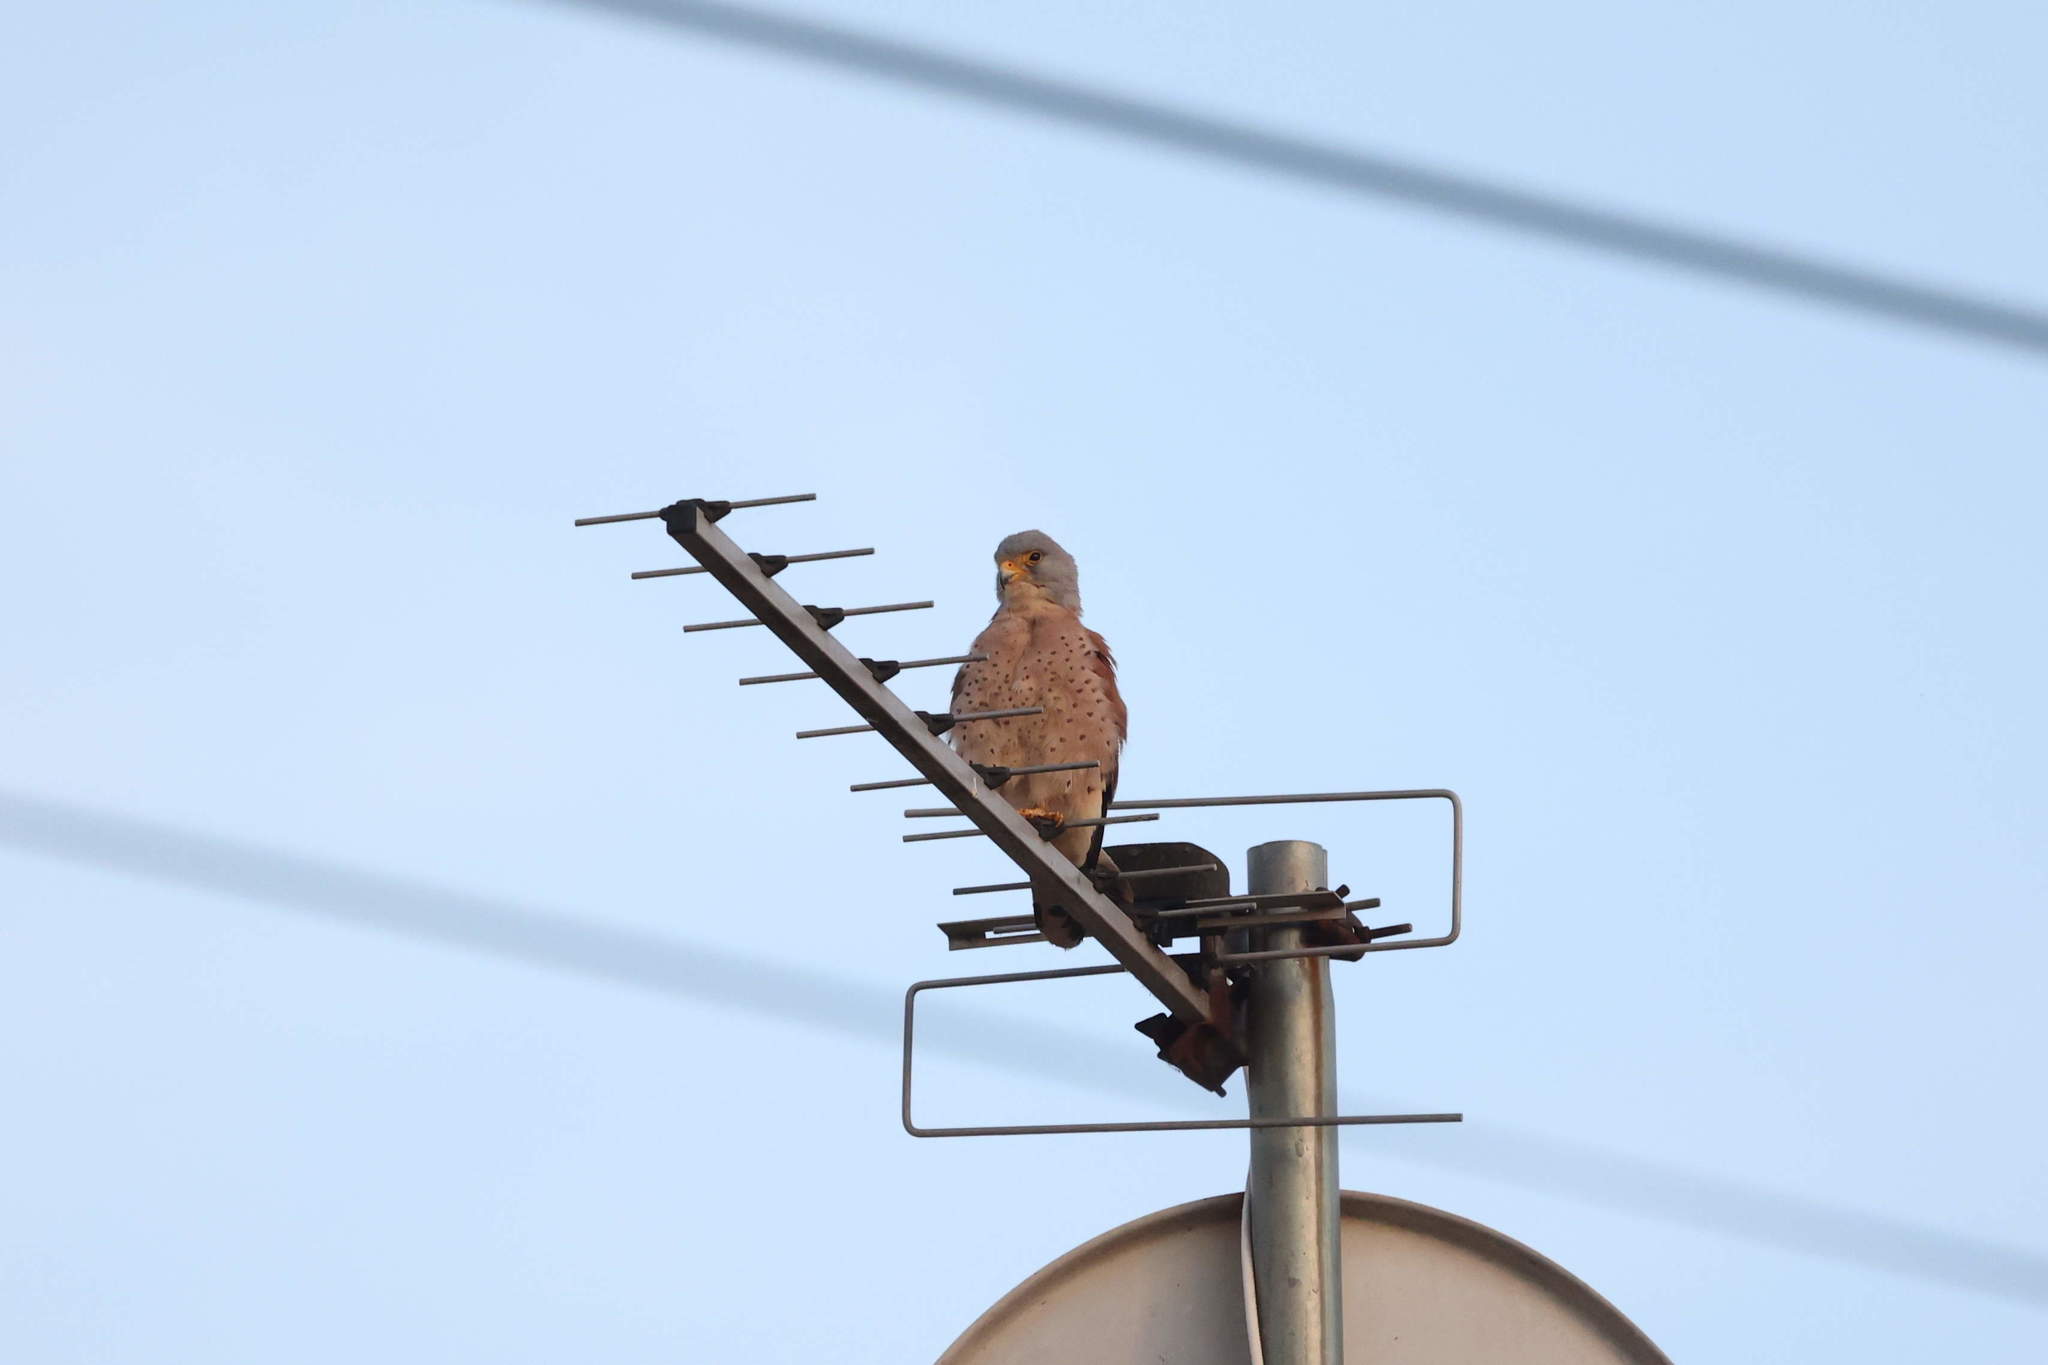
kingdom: Animalia
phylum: Chordata
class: Aves
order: Falconiformes
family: Falconidae
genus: Falco
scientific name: Falco naumanni
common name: Lesser kestrel
